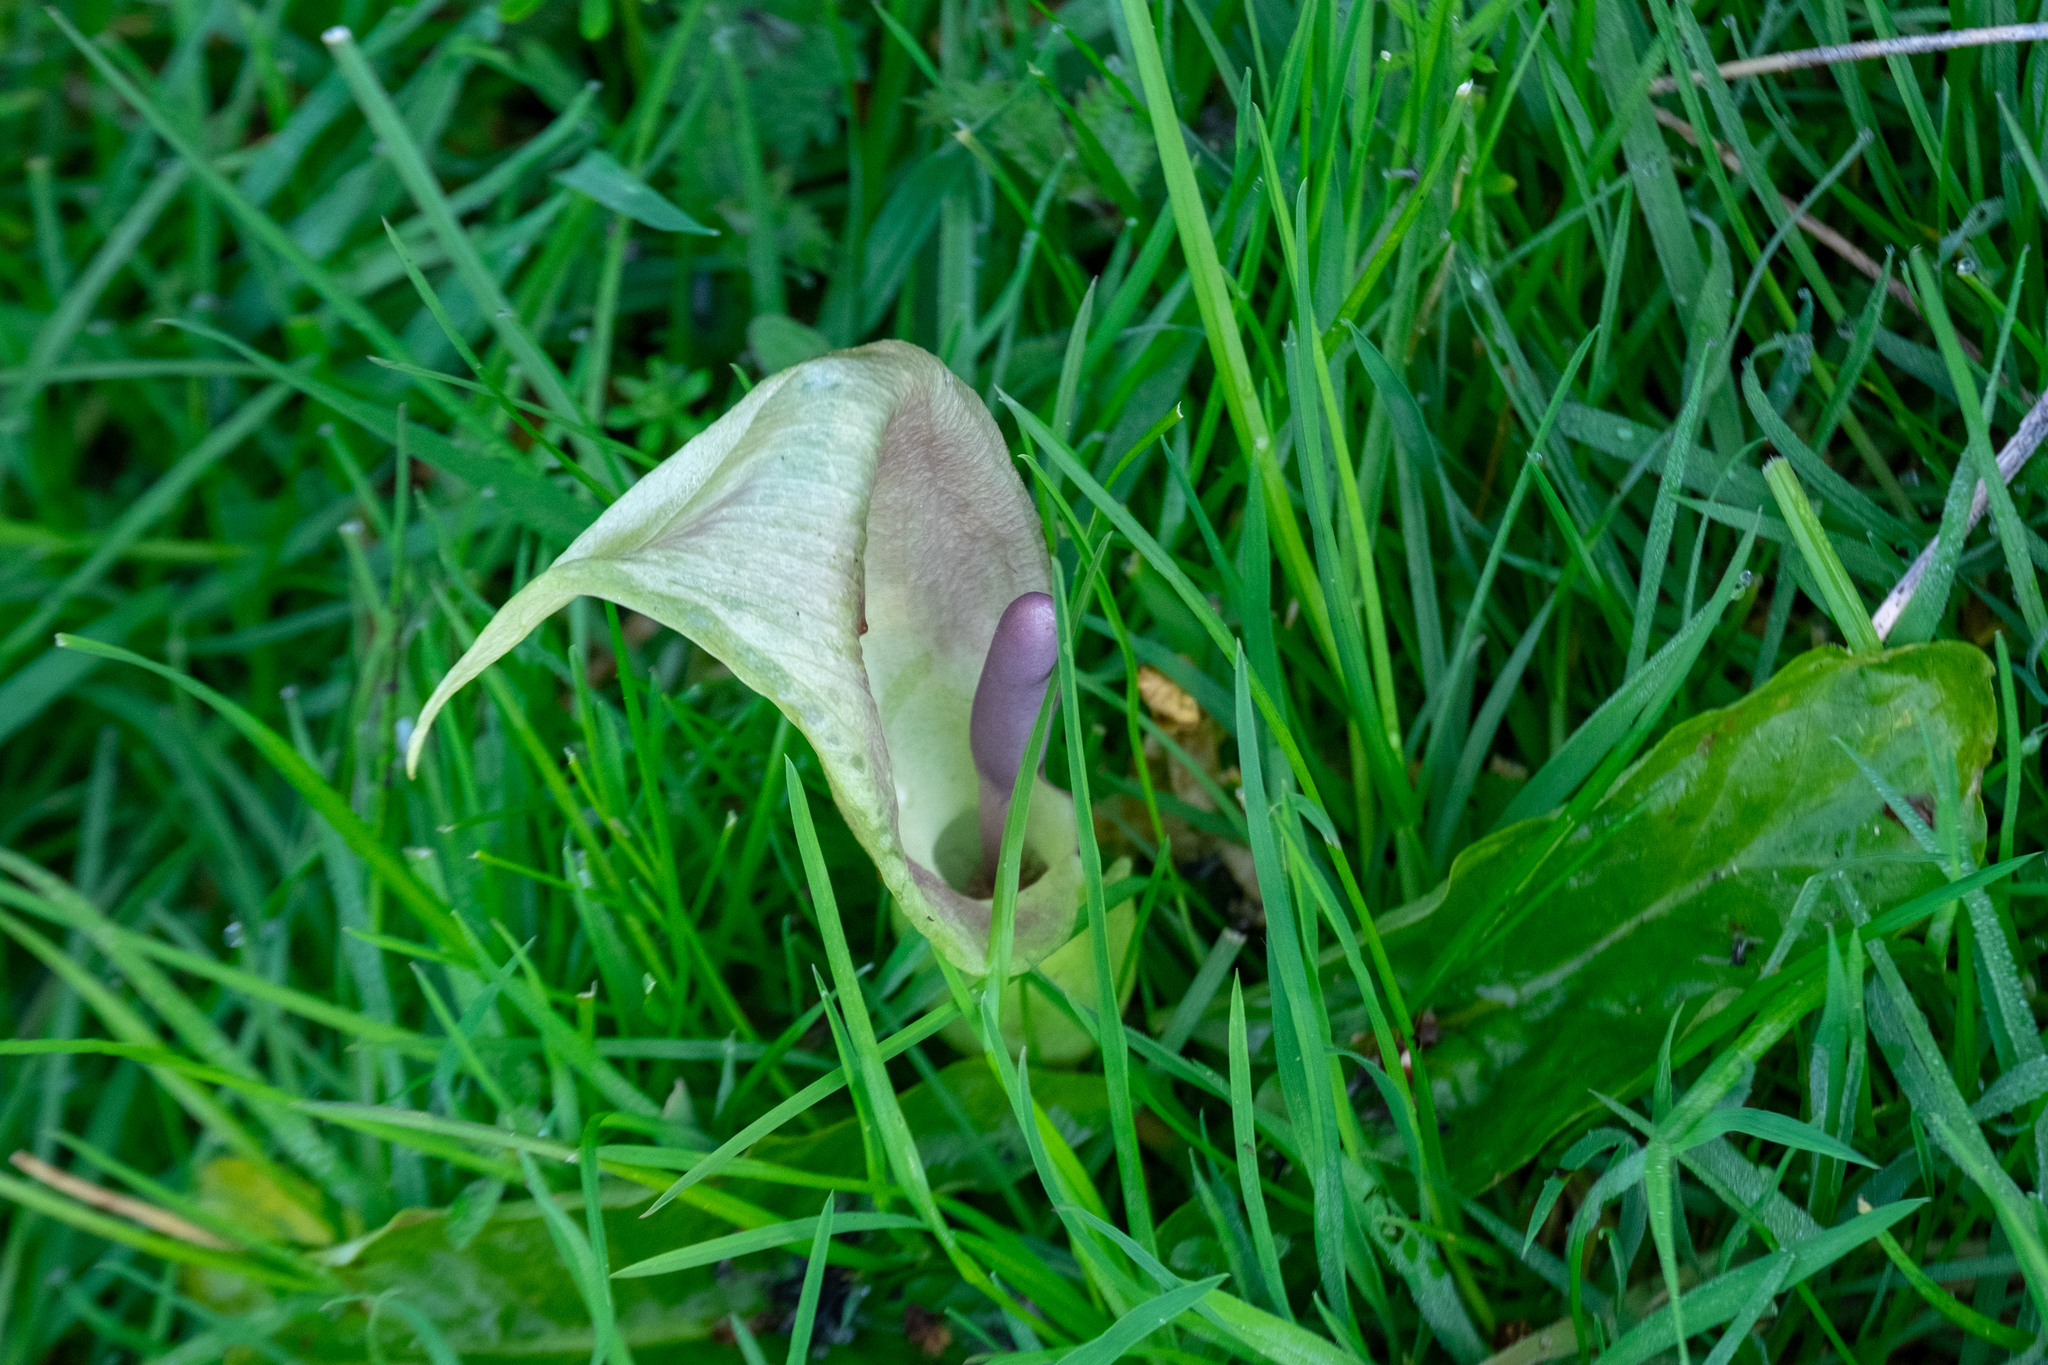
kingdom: Plantae
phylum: Tracheophyta
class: Liliopsida
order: Alismatales
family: Araceae
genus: Arum
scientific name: Arum maculatum
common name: Lords-and-ladies
